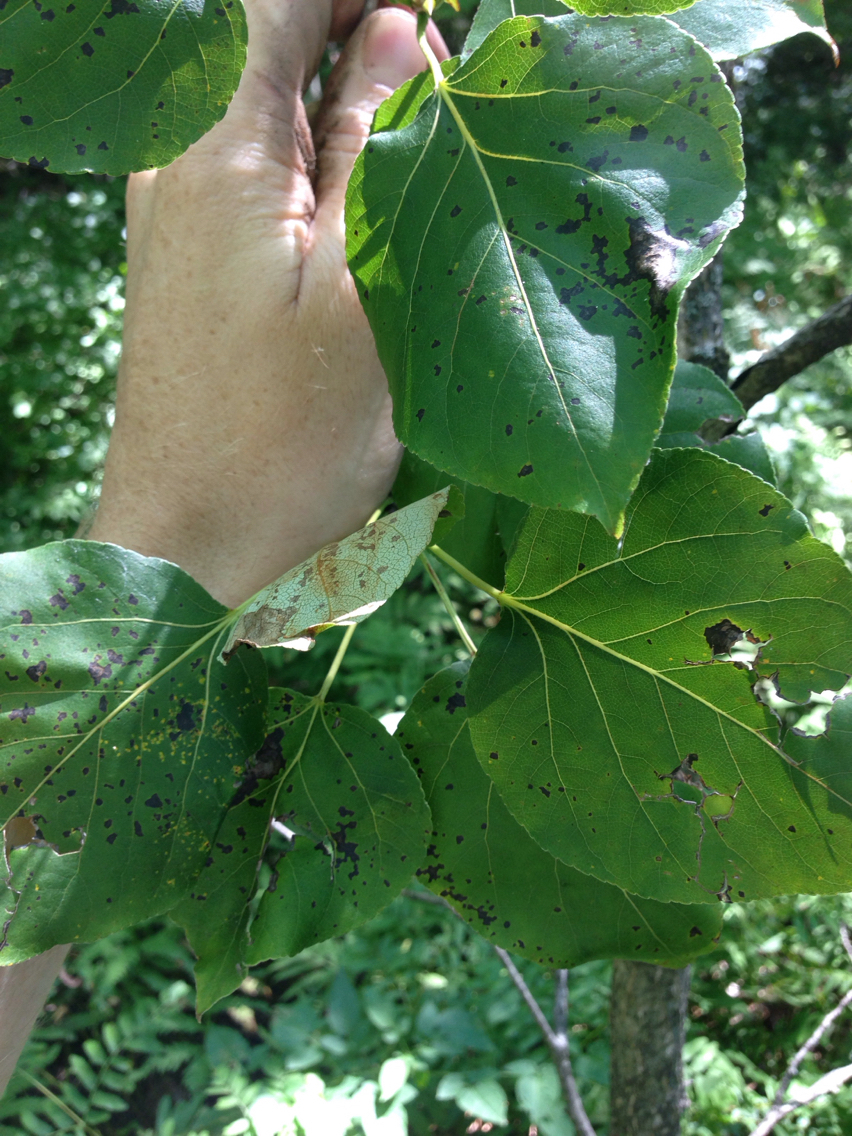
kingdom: Plantae
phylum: Tracheophyta
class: Magnoliopsida
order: Malpighiales
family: Salicaceae
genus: Populus
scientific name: Populus balsamifera
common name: Balsam poplar
